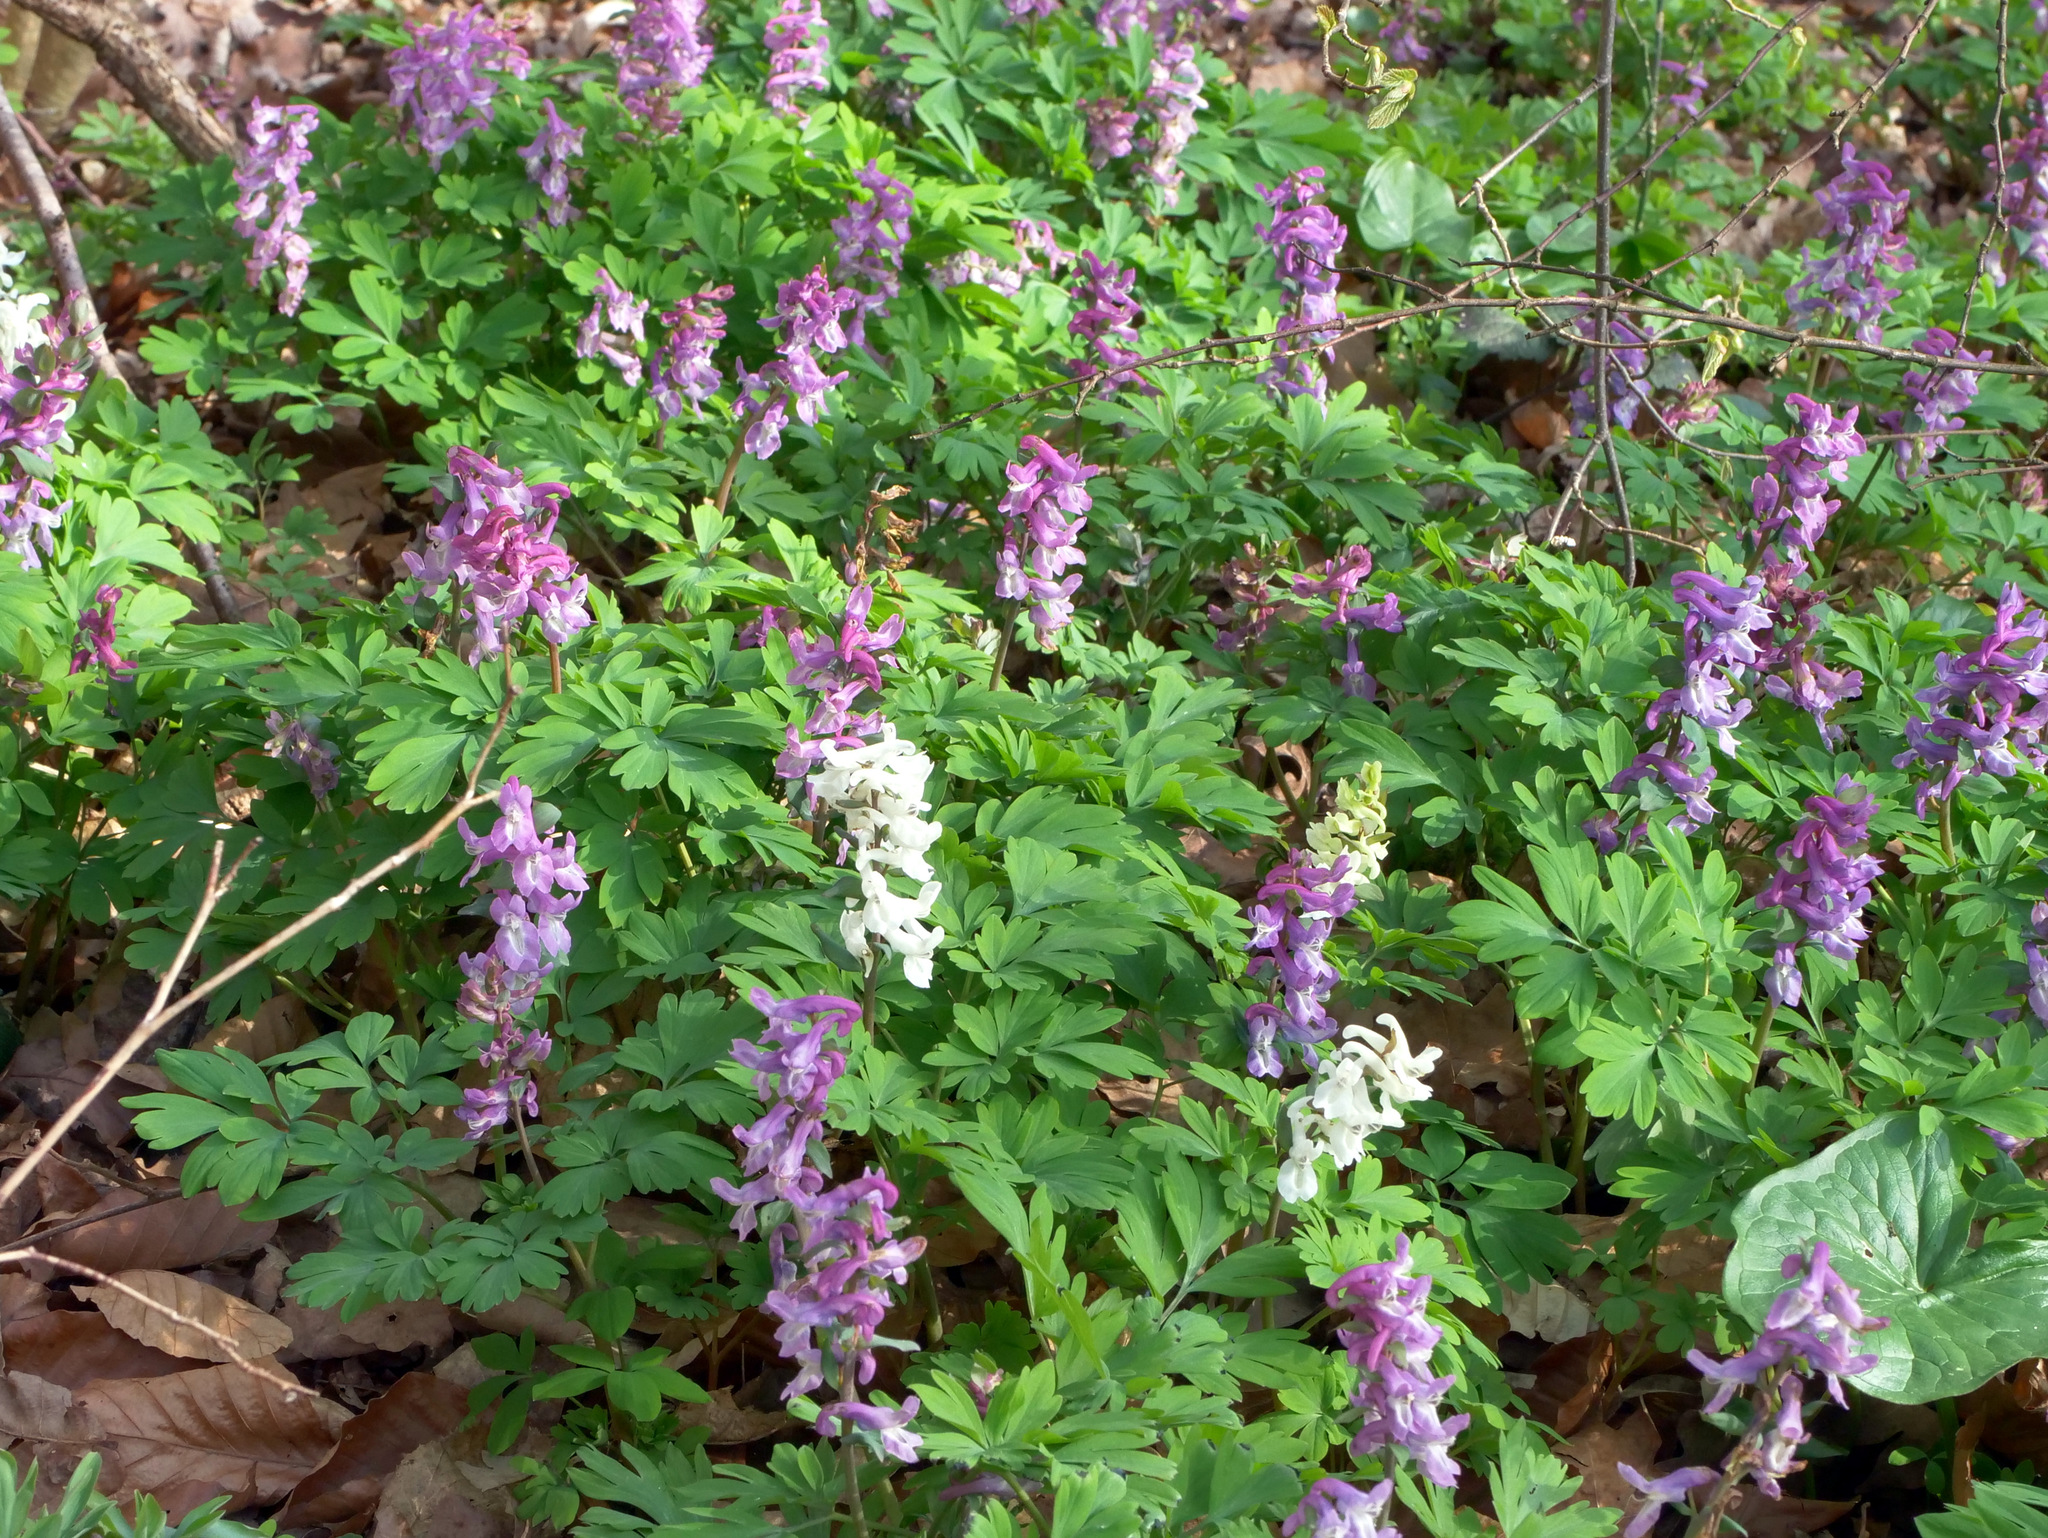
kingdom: Plantae
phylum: Tracheophyta
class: Magnoliopsida
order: Ranunculales
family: Papaveraceae
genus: Corydalis
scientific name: Corydalis cava
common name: Hollowroot
